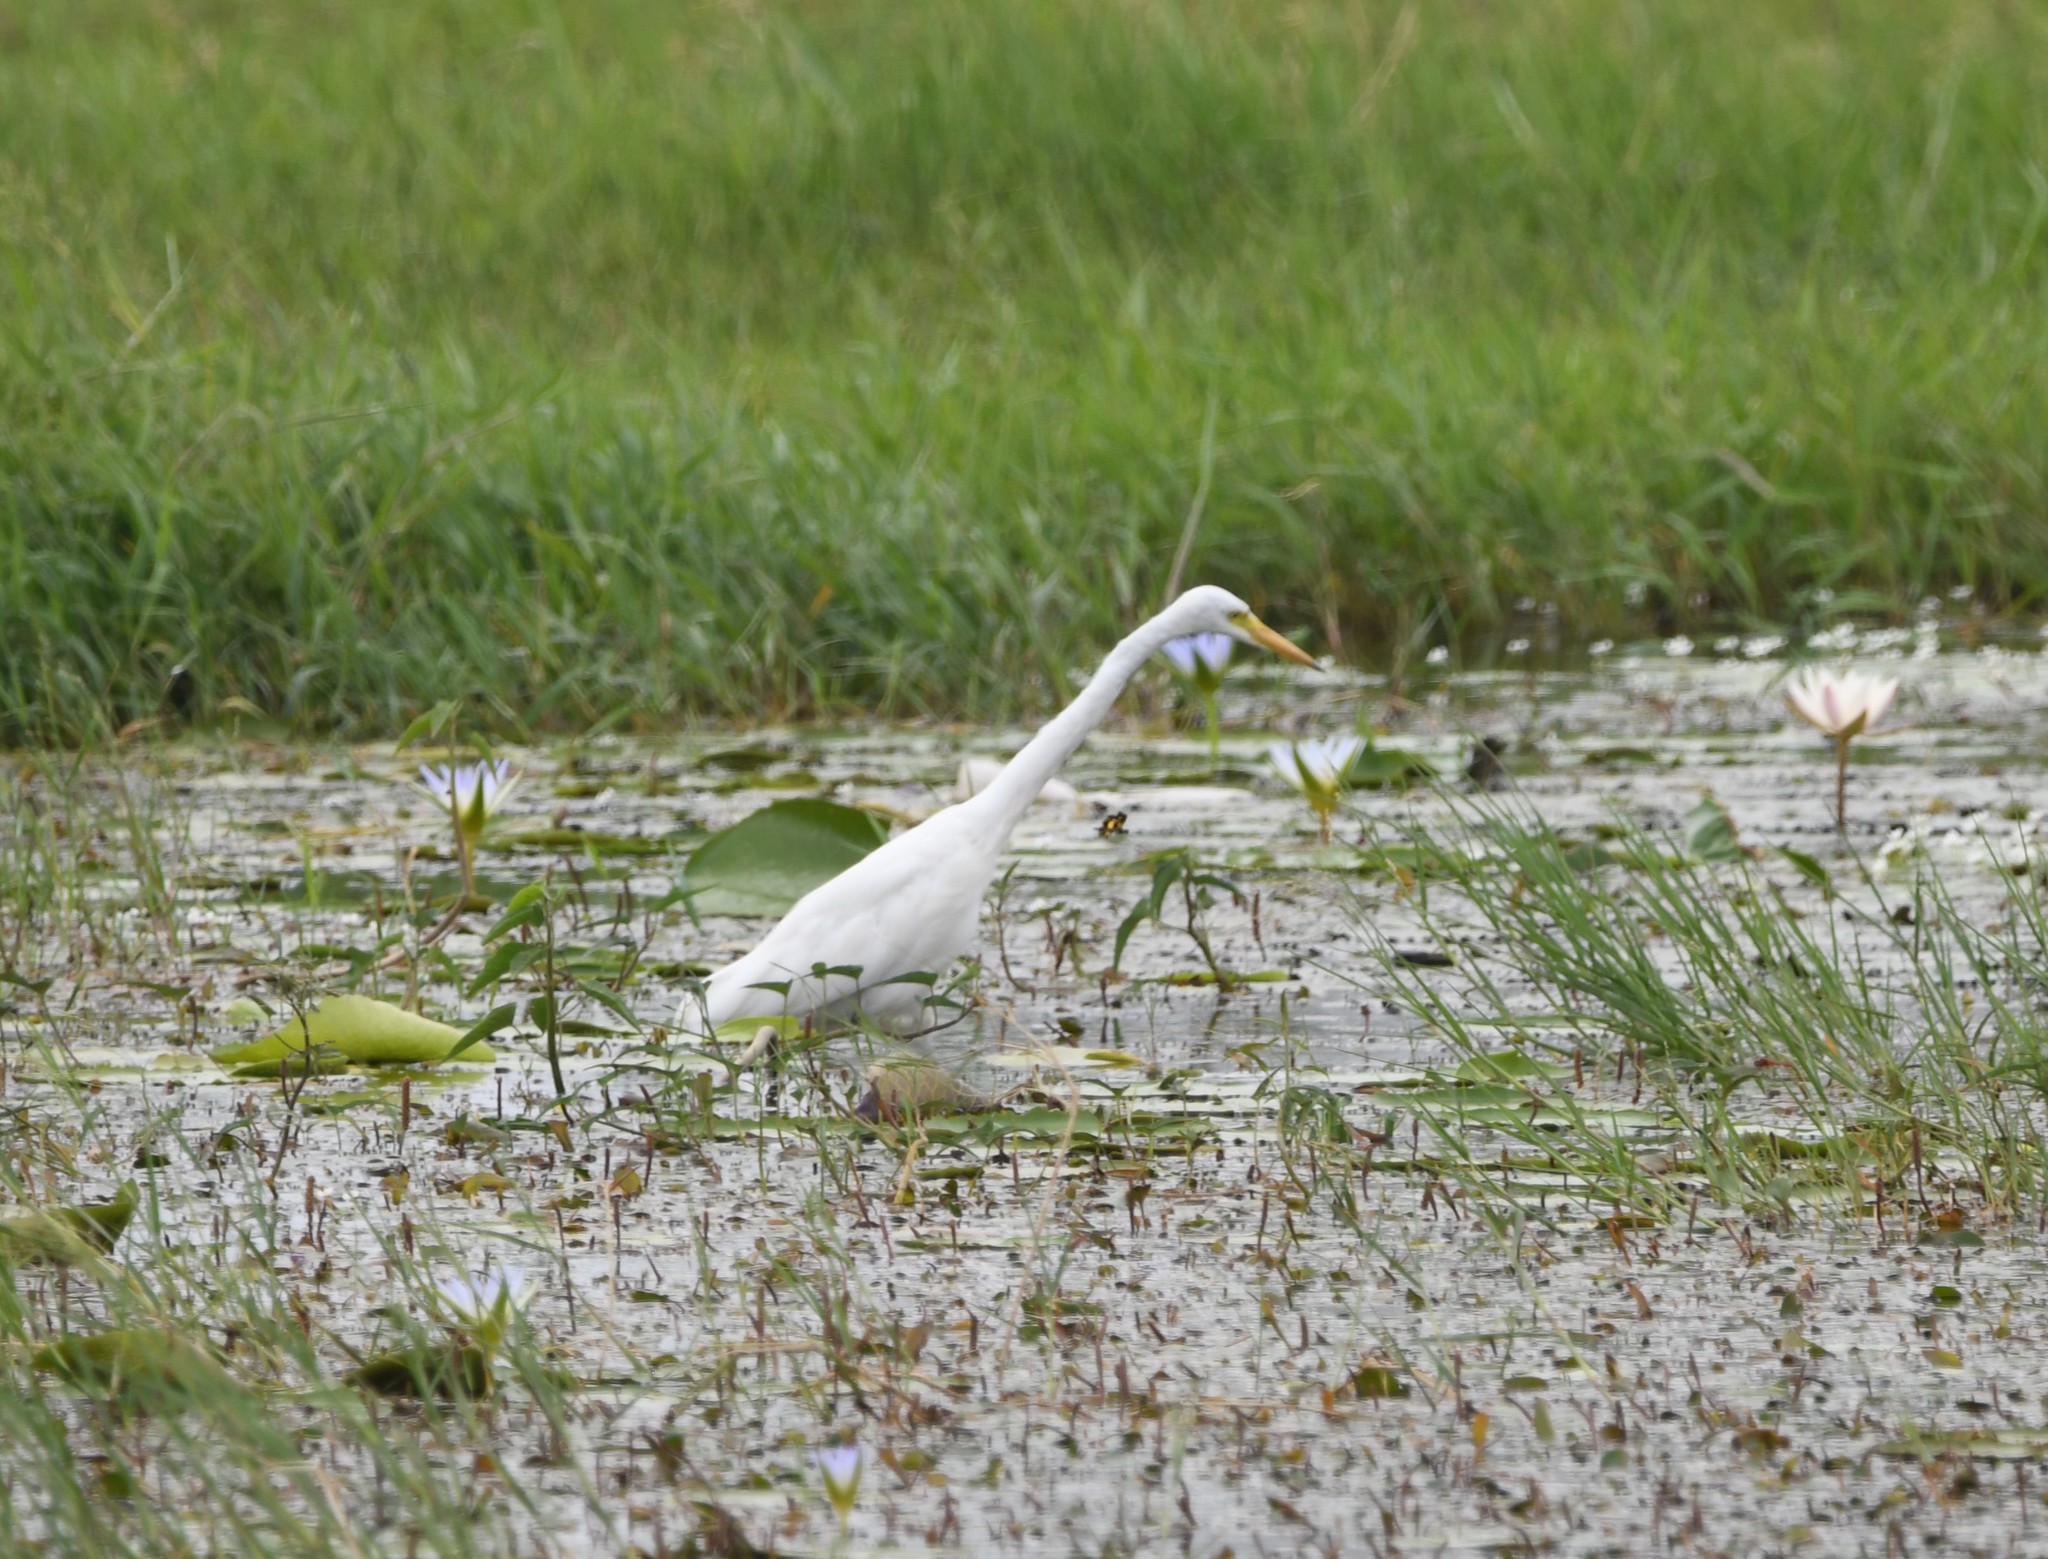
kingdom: Animalia
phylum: Chordata
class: Aves
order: Pelecaniformes
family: Ardeidae
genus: Egretta
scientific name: Egretta intermedia
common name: Intermediate egret
